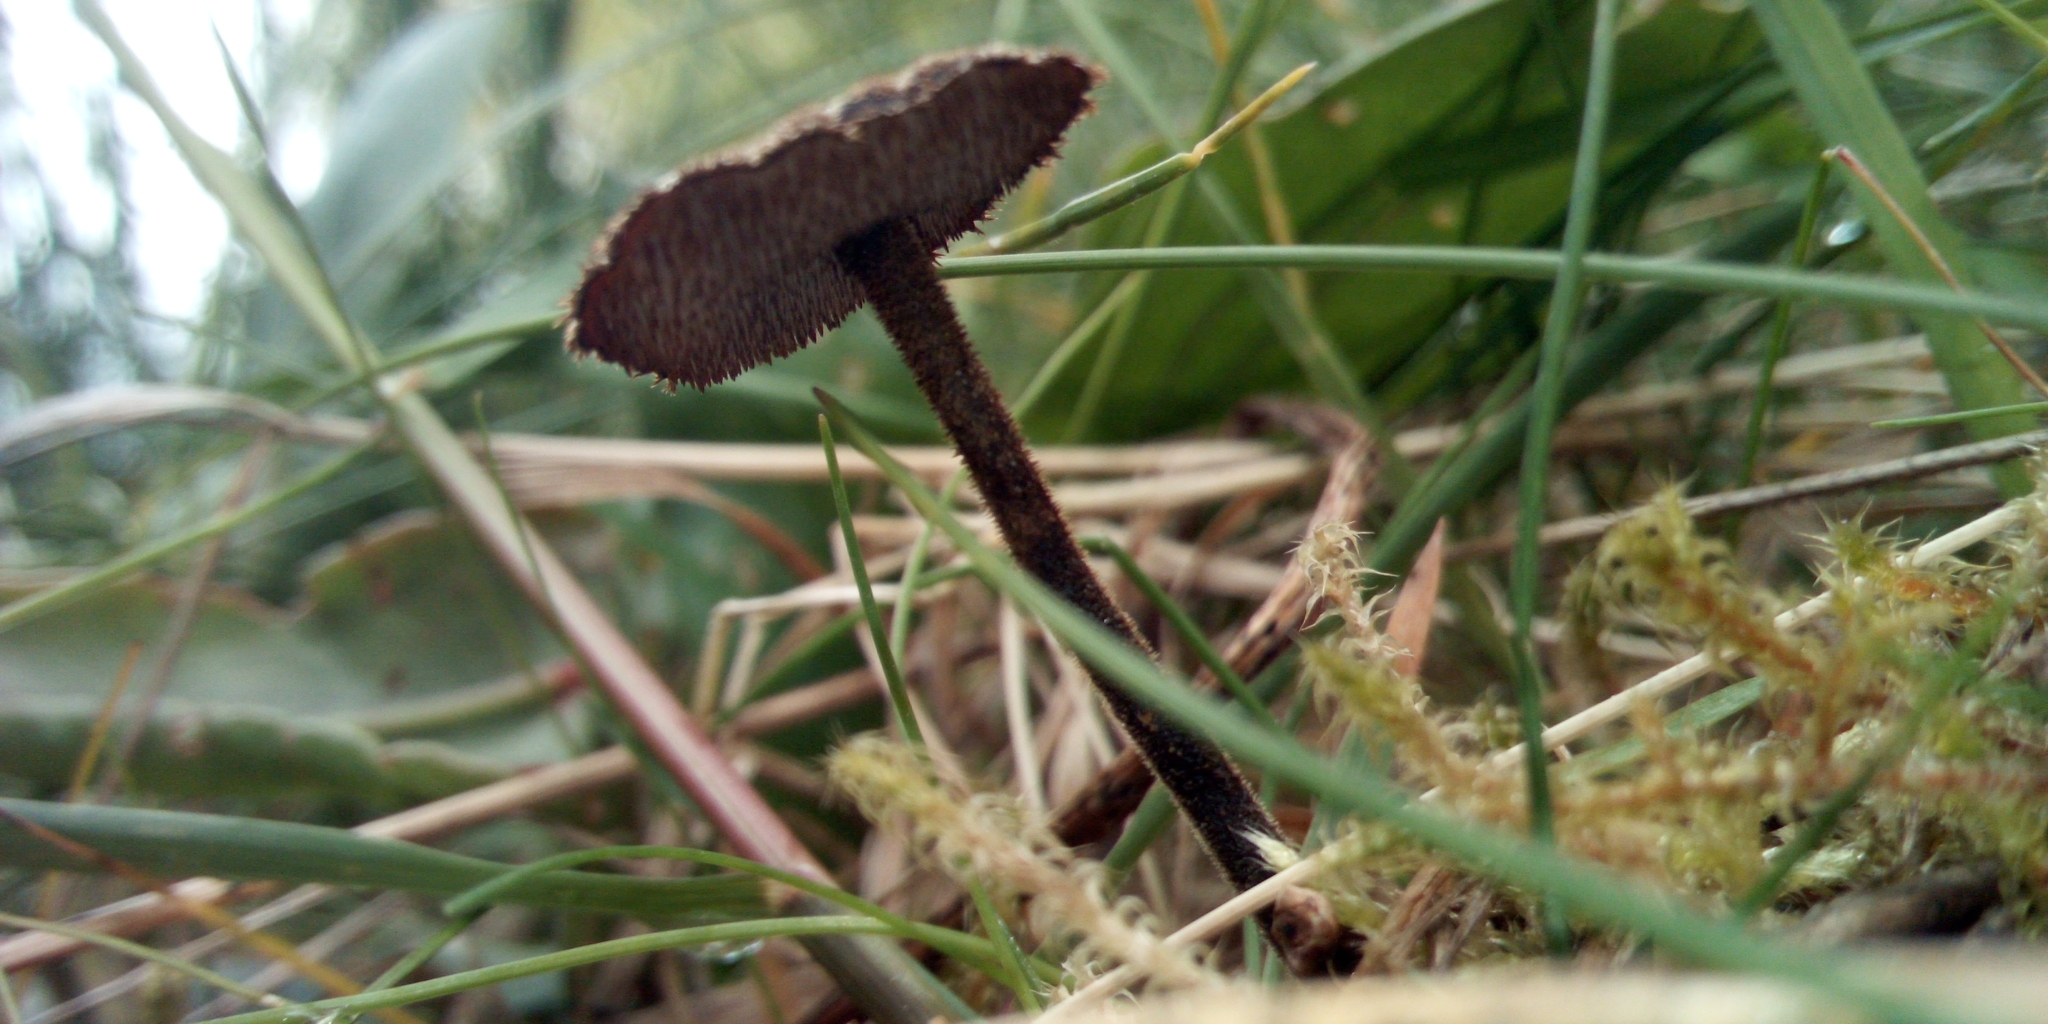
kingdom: Fungi
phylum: Basidiomycota
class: Agaricomycetes
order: Russulales
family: Auriscalpiaceae
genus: Auriscalpium
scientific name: Auriscalpium vulgare
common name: Earpick fungus
